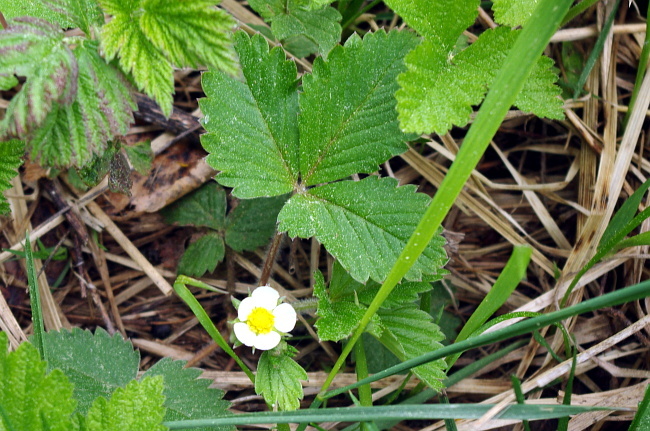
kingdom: Plantae
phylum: Tracheophyta
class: Magnoliopsida
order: Rosales
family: Rosaceae
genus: Fragaria
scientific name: Fragaria vesca
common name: Wild strawberry
